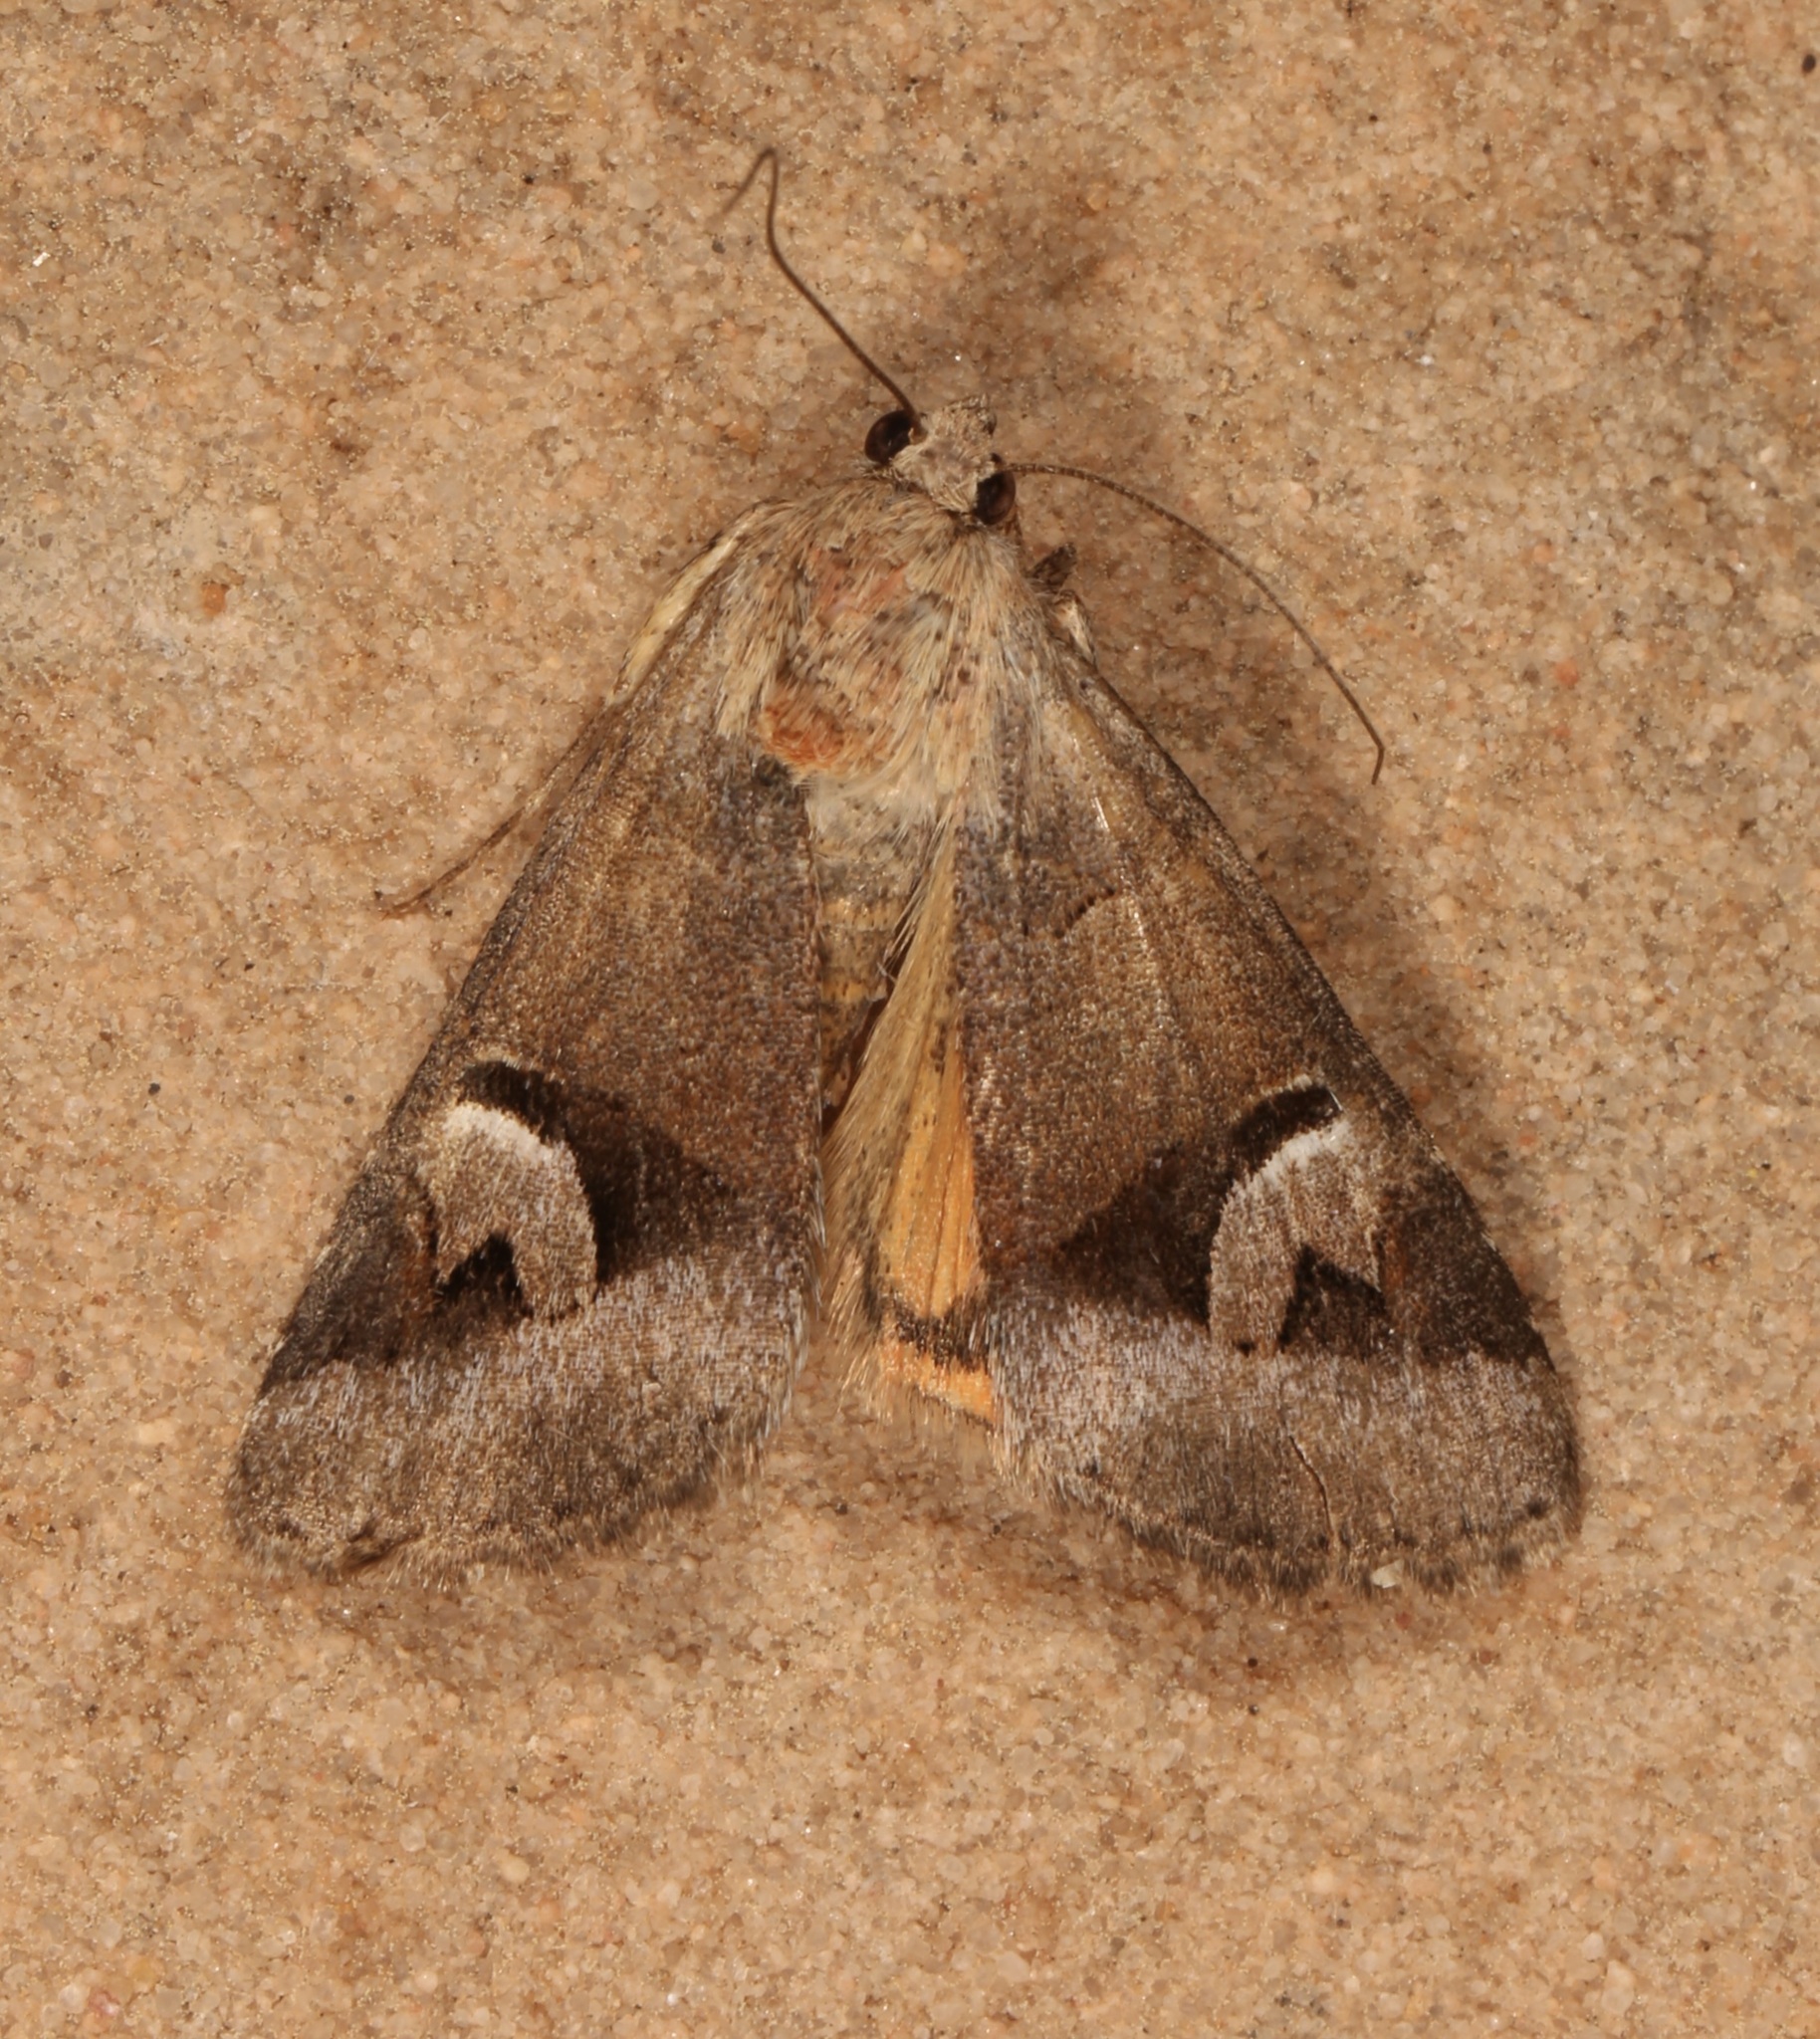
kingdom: Animalia
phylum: Arthropoda
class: Insecta
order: Lepidoptera
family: Erebidae
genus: Drasteria
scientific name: Drasteria perplexa
